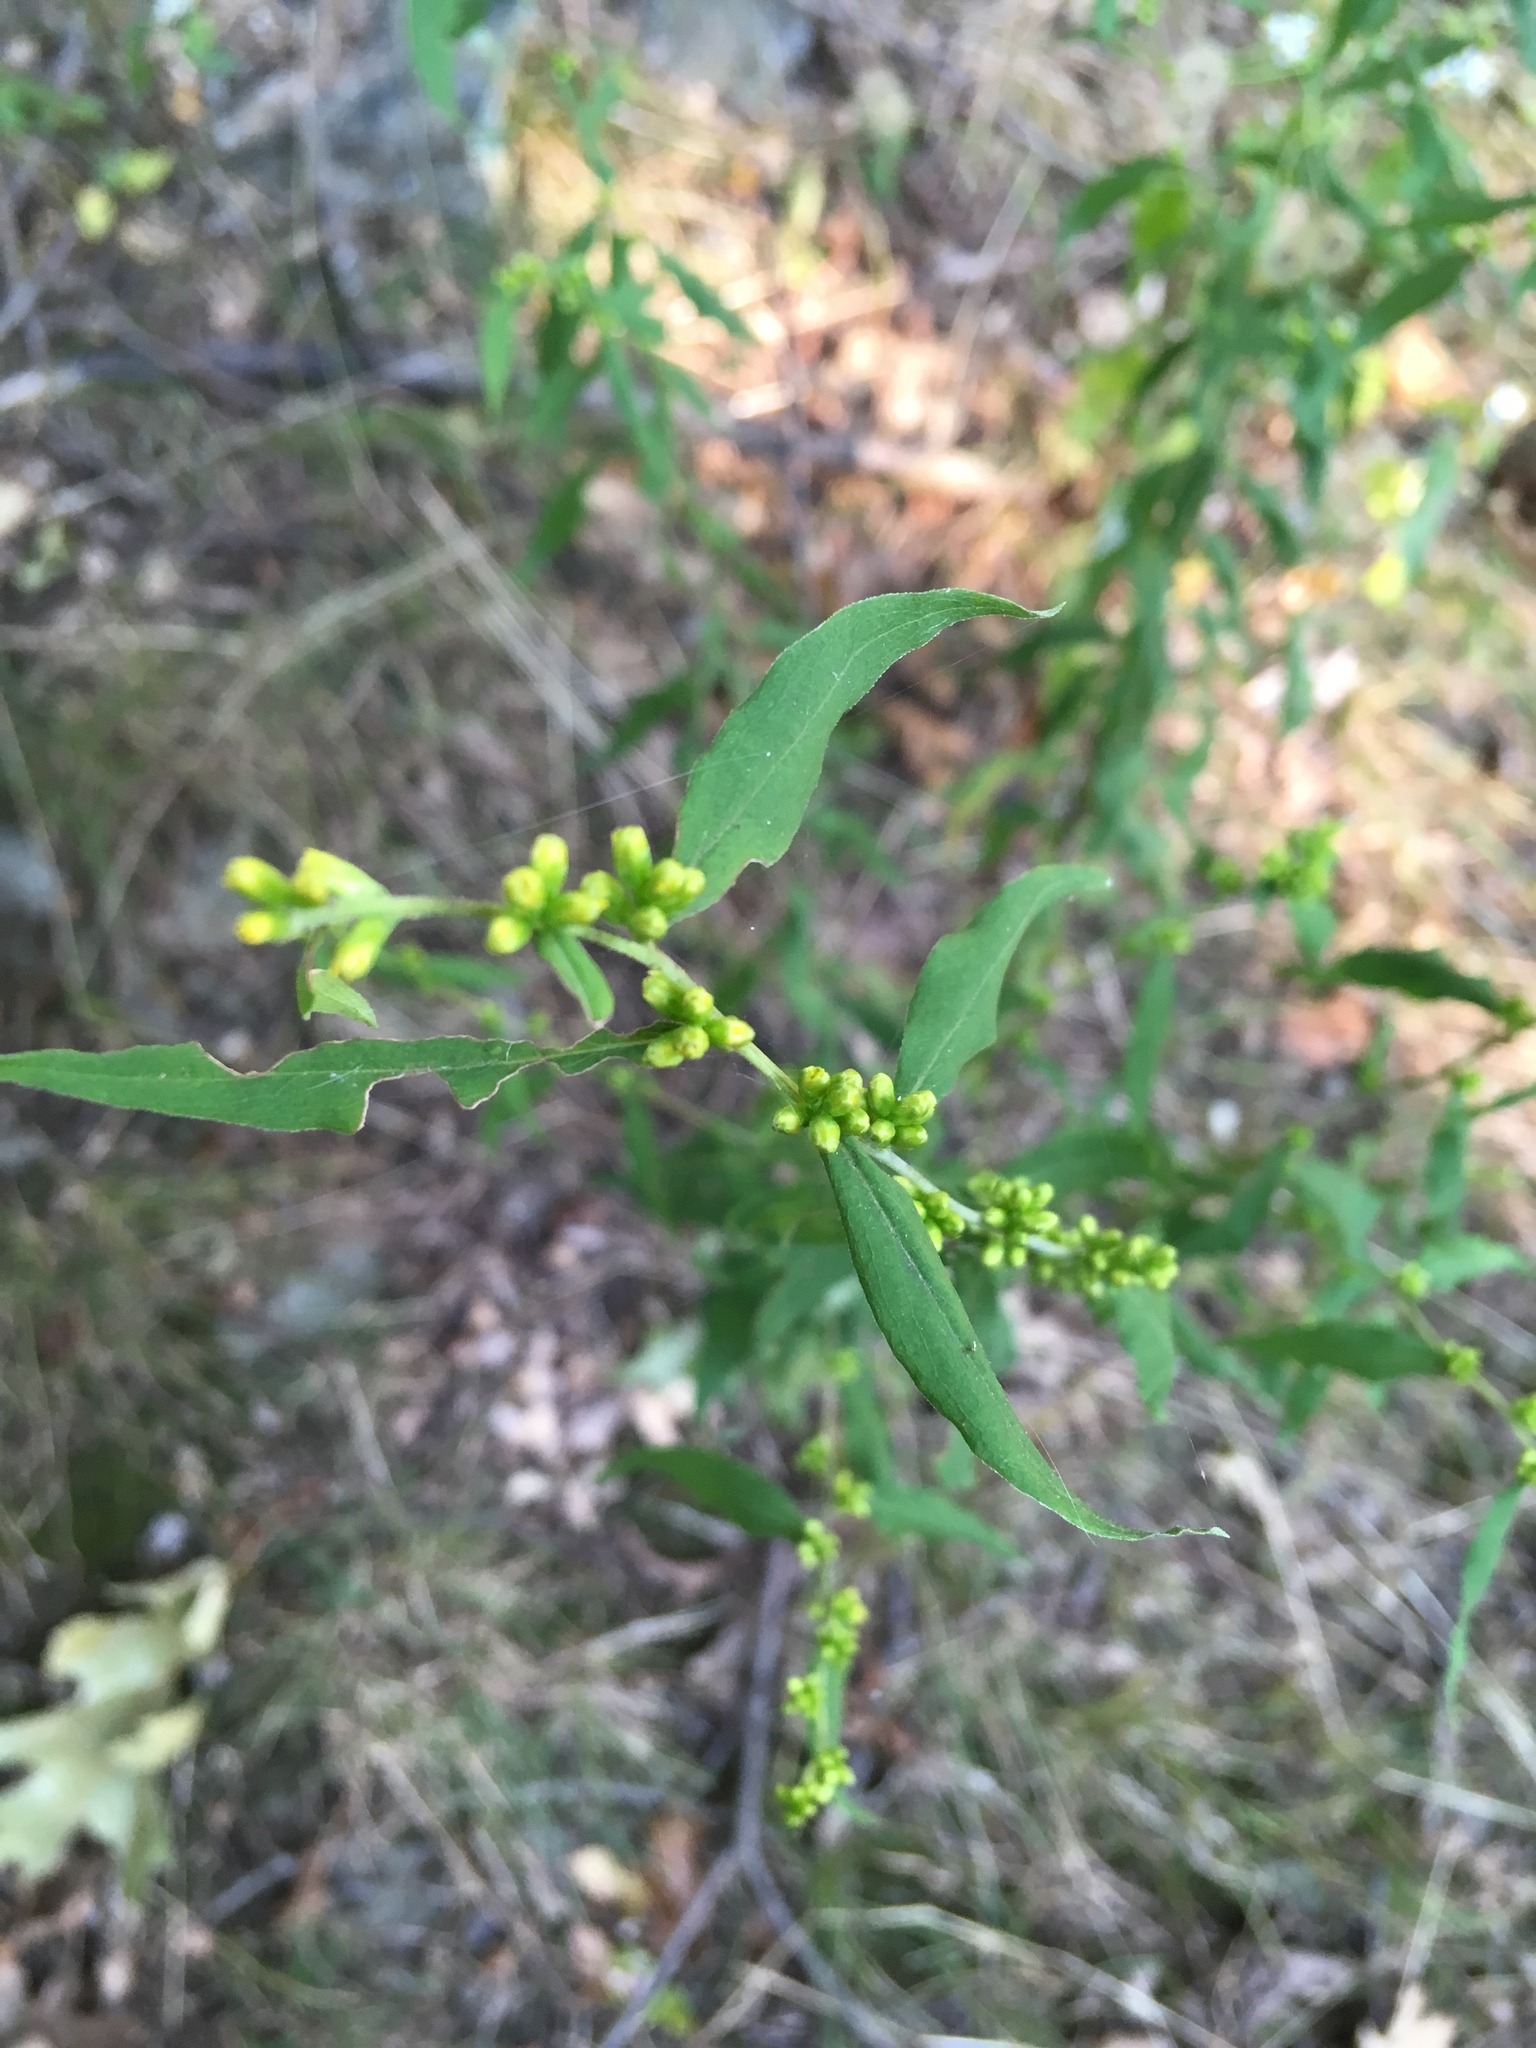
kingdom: Plantae
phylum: Tracheophyta
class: Magnoliopsida
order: Asterales
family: Asteraceae
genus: Solidago
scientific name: Solidago caesia
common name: Woodland goldenrod
